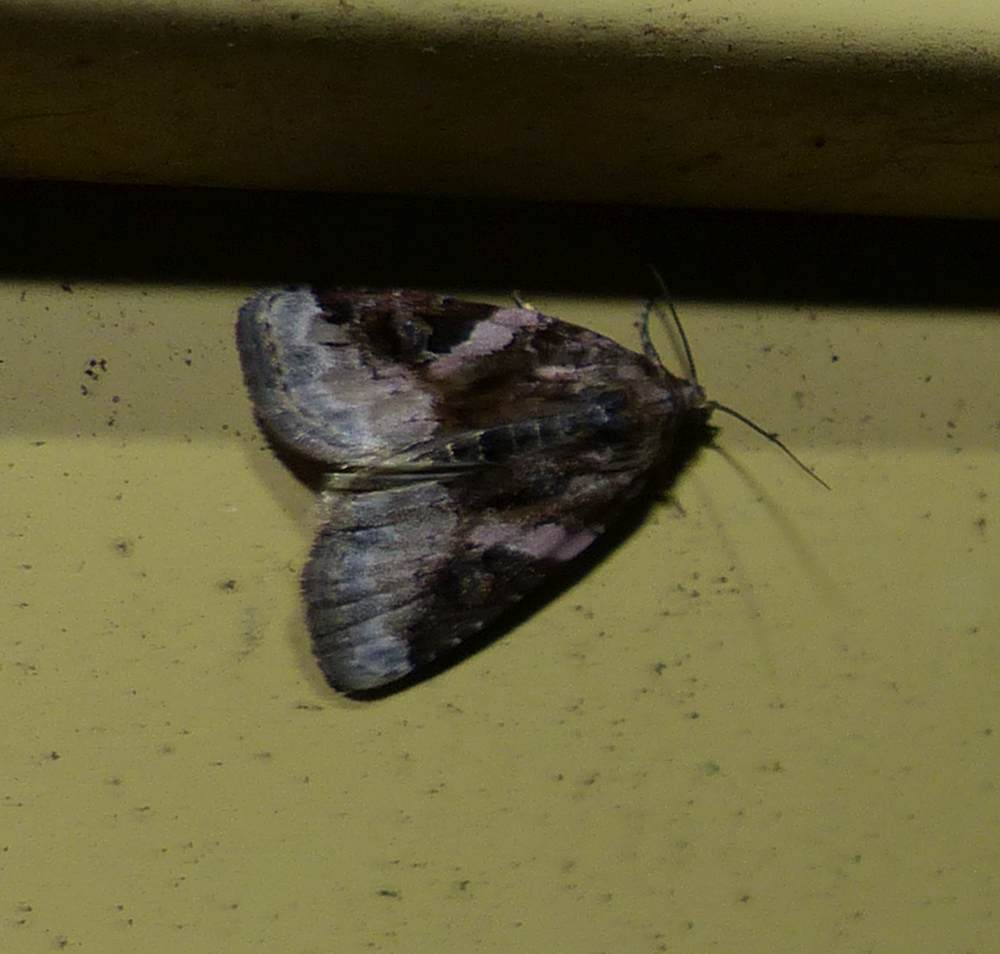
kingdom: Animalia
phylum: Arthropoda
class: Insecta
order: Lepidoptera
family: Noctuidae
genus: Pseudeustrotia
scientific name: Pseudeustrotia carneola
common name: Pink-barred lithacodia moth
